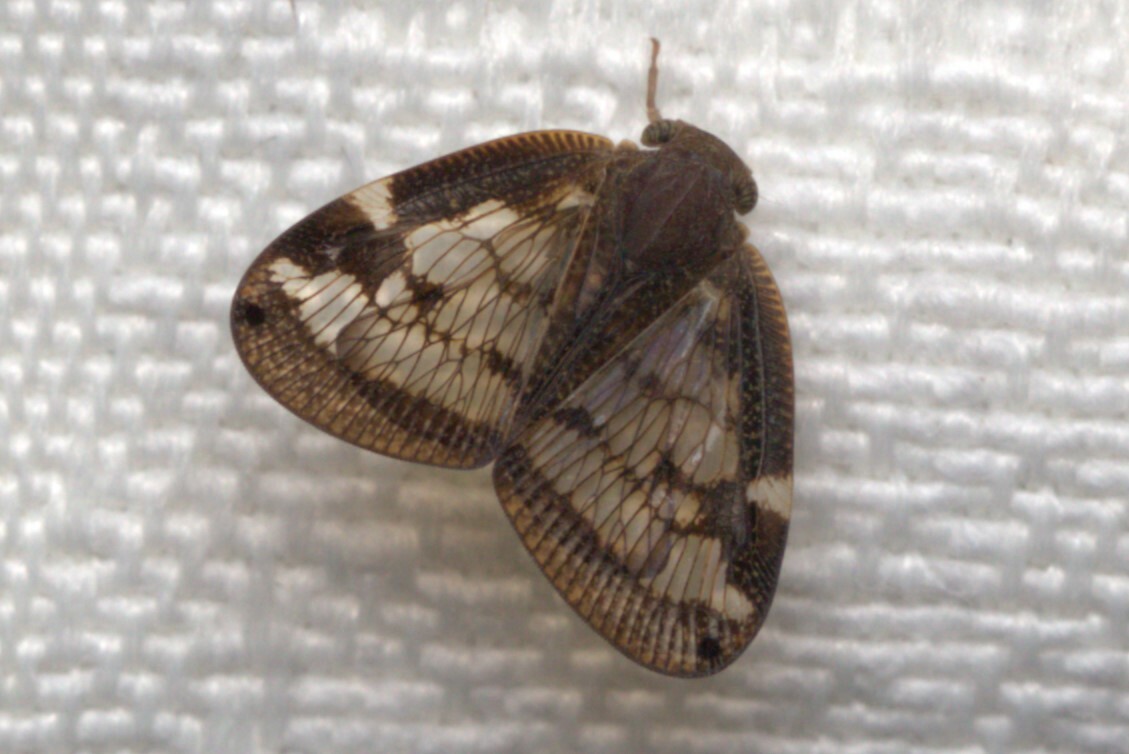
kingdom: Animalia
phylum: Arthropoda
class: Insecta
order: Hemiptera
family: Ricaniidae
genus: Scolypopa
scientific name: Scolypopa australis
